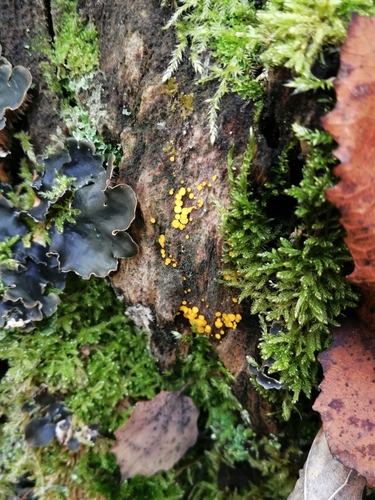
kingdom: Fungi
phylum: Ascomycota
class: Leotiomycetes
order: Helotiales
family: Pezizellaceae
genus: Calycina
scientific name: Calycina citrina
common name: Yellow fairy cups
